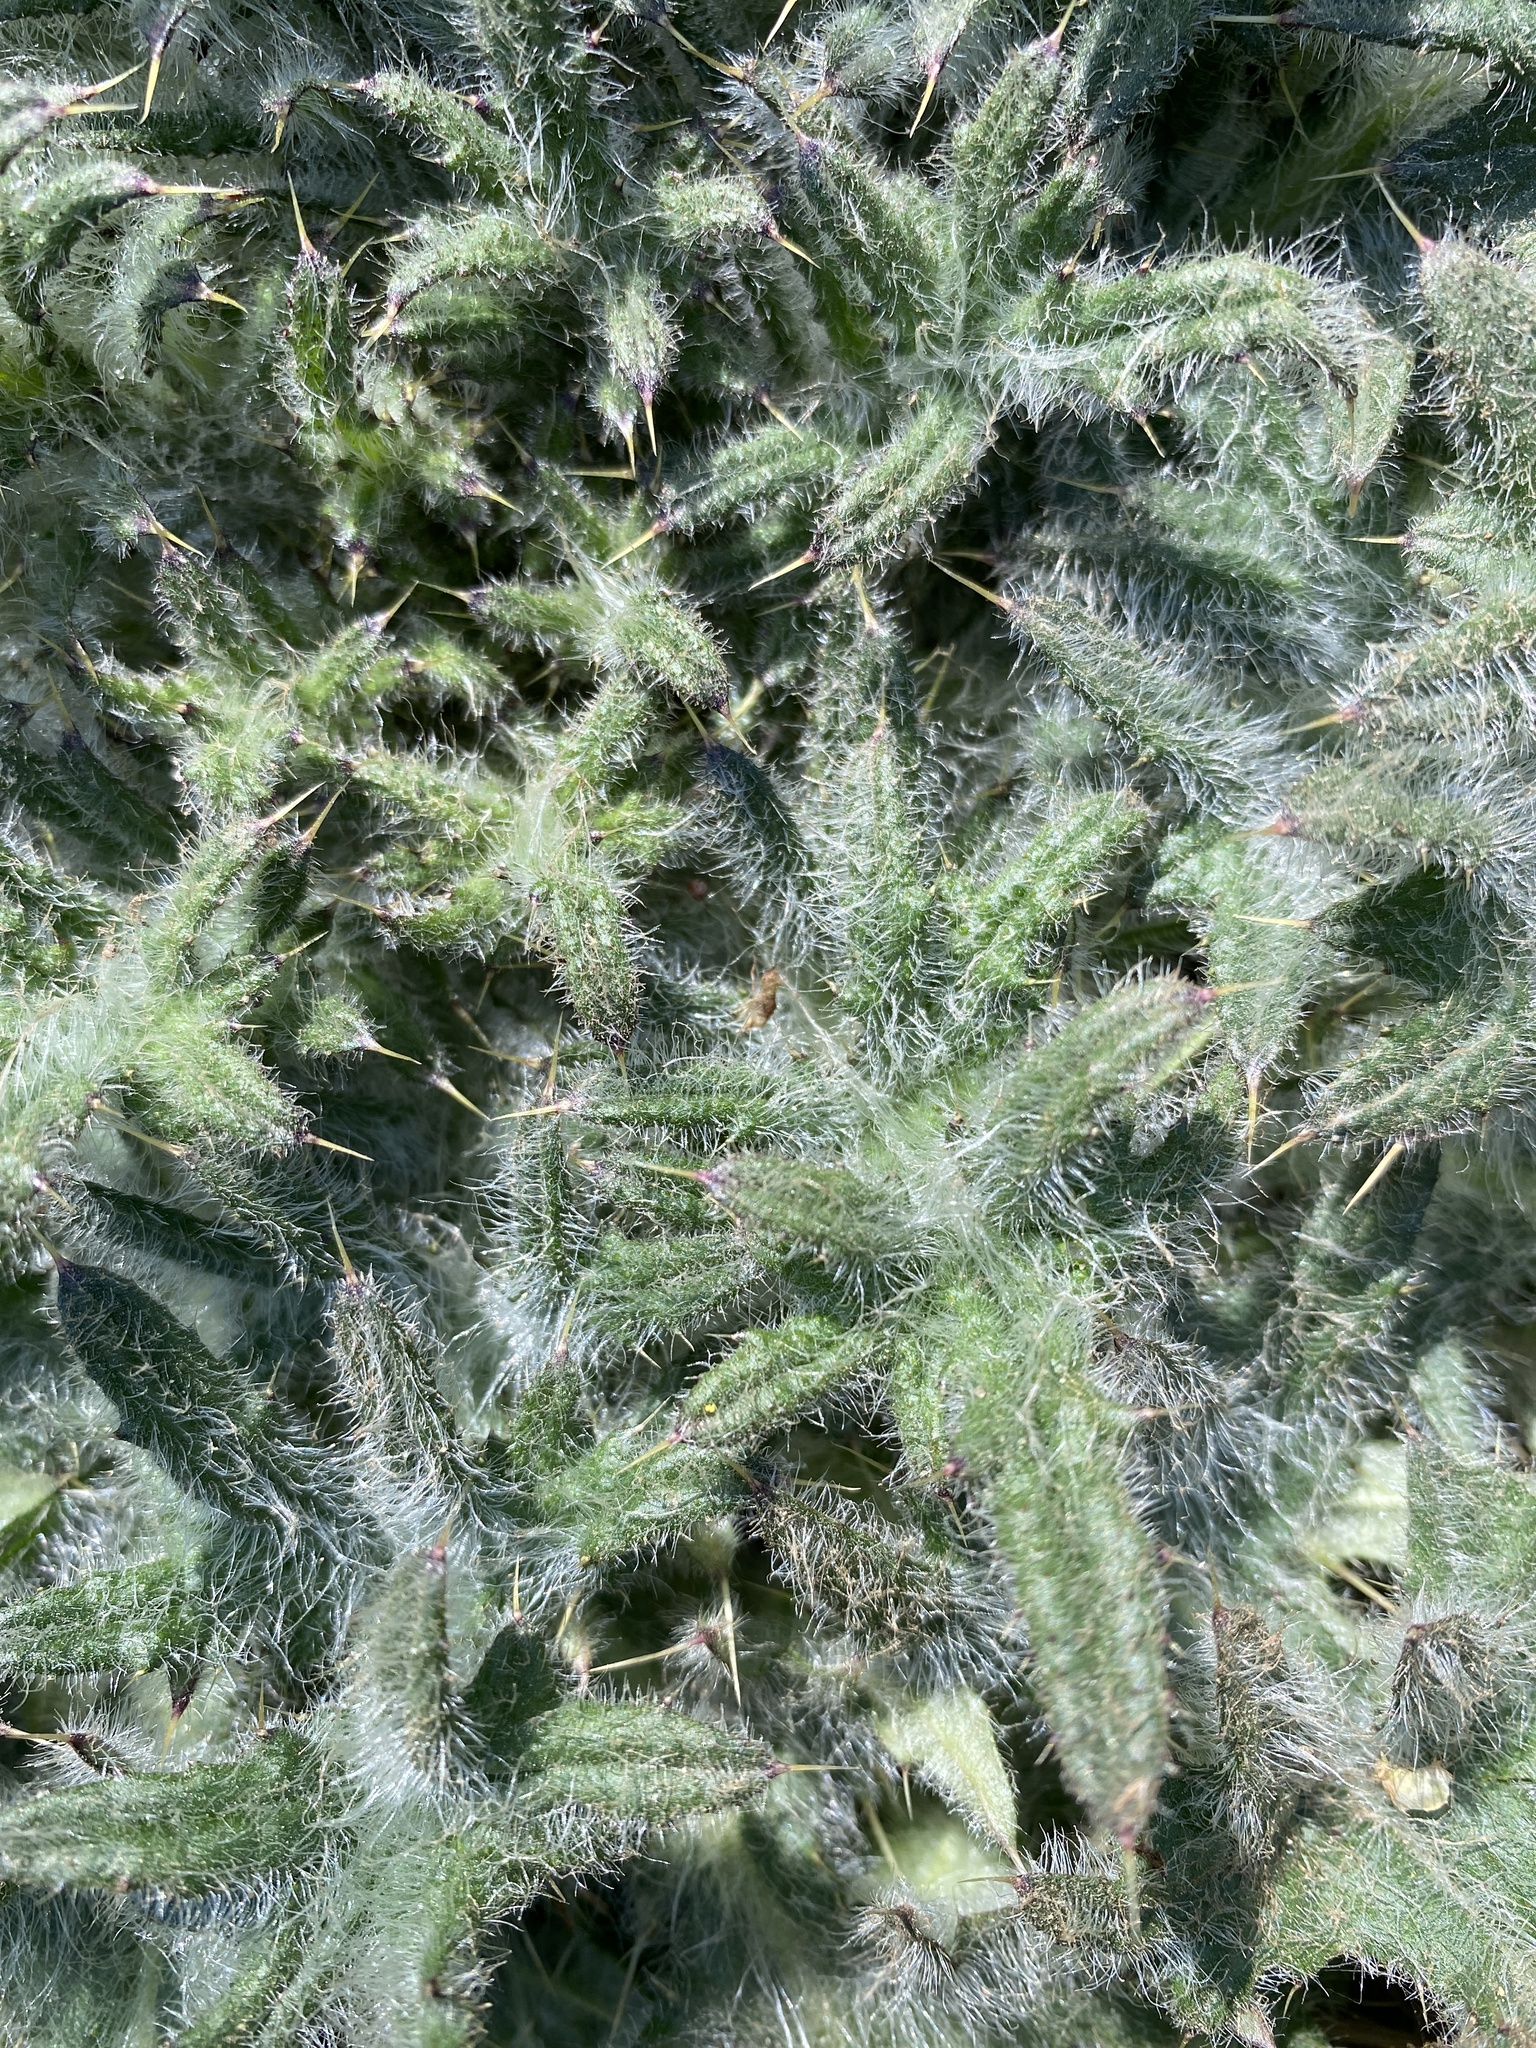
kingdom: Plantae
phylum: Tracheophyta
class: Magnoliopsida
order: Asterales
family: Asteraceae
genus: Cirsium
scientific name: Cirsium vulgare
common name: Bull thistle
